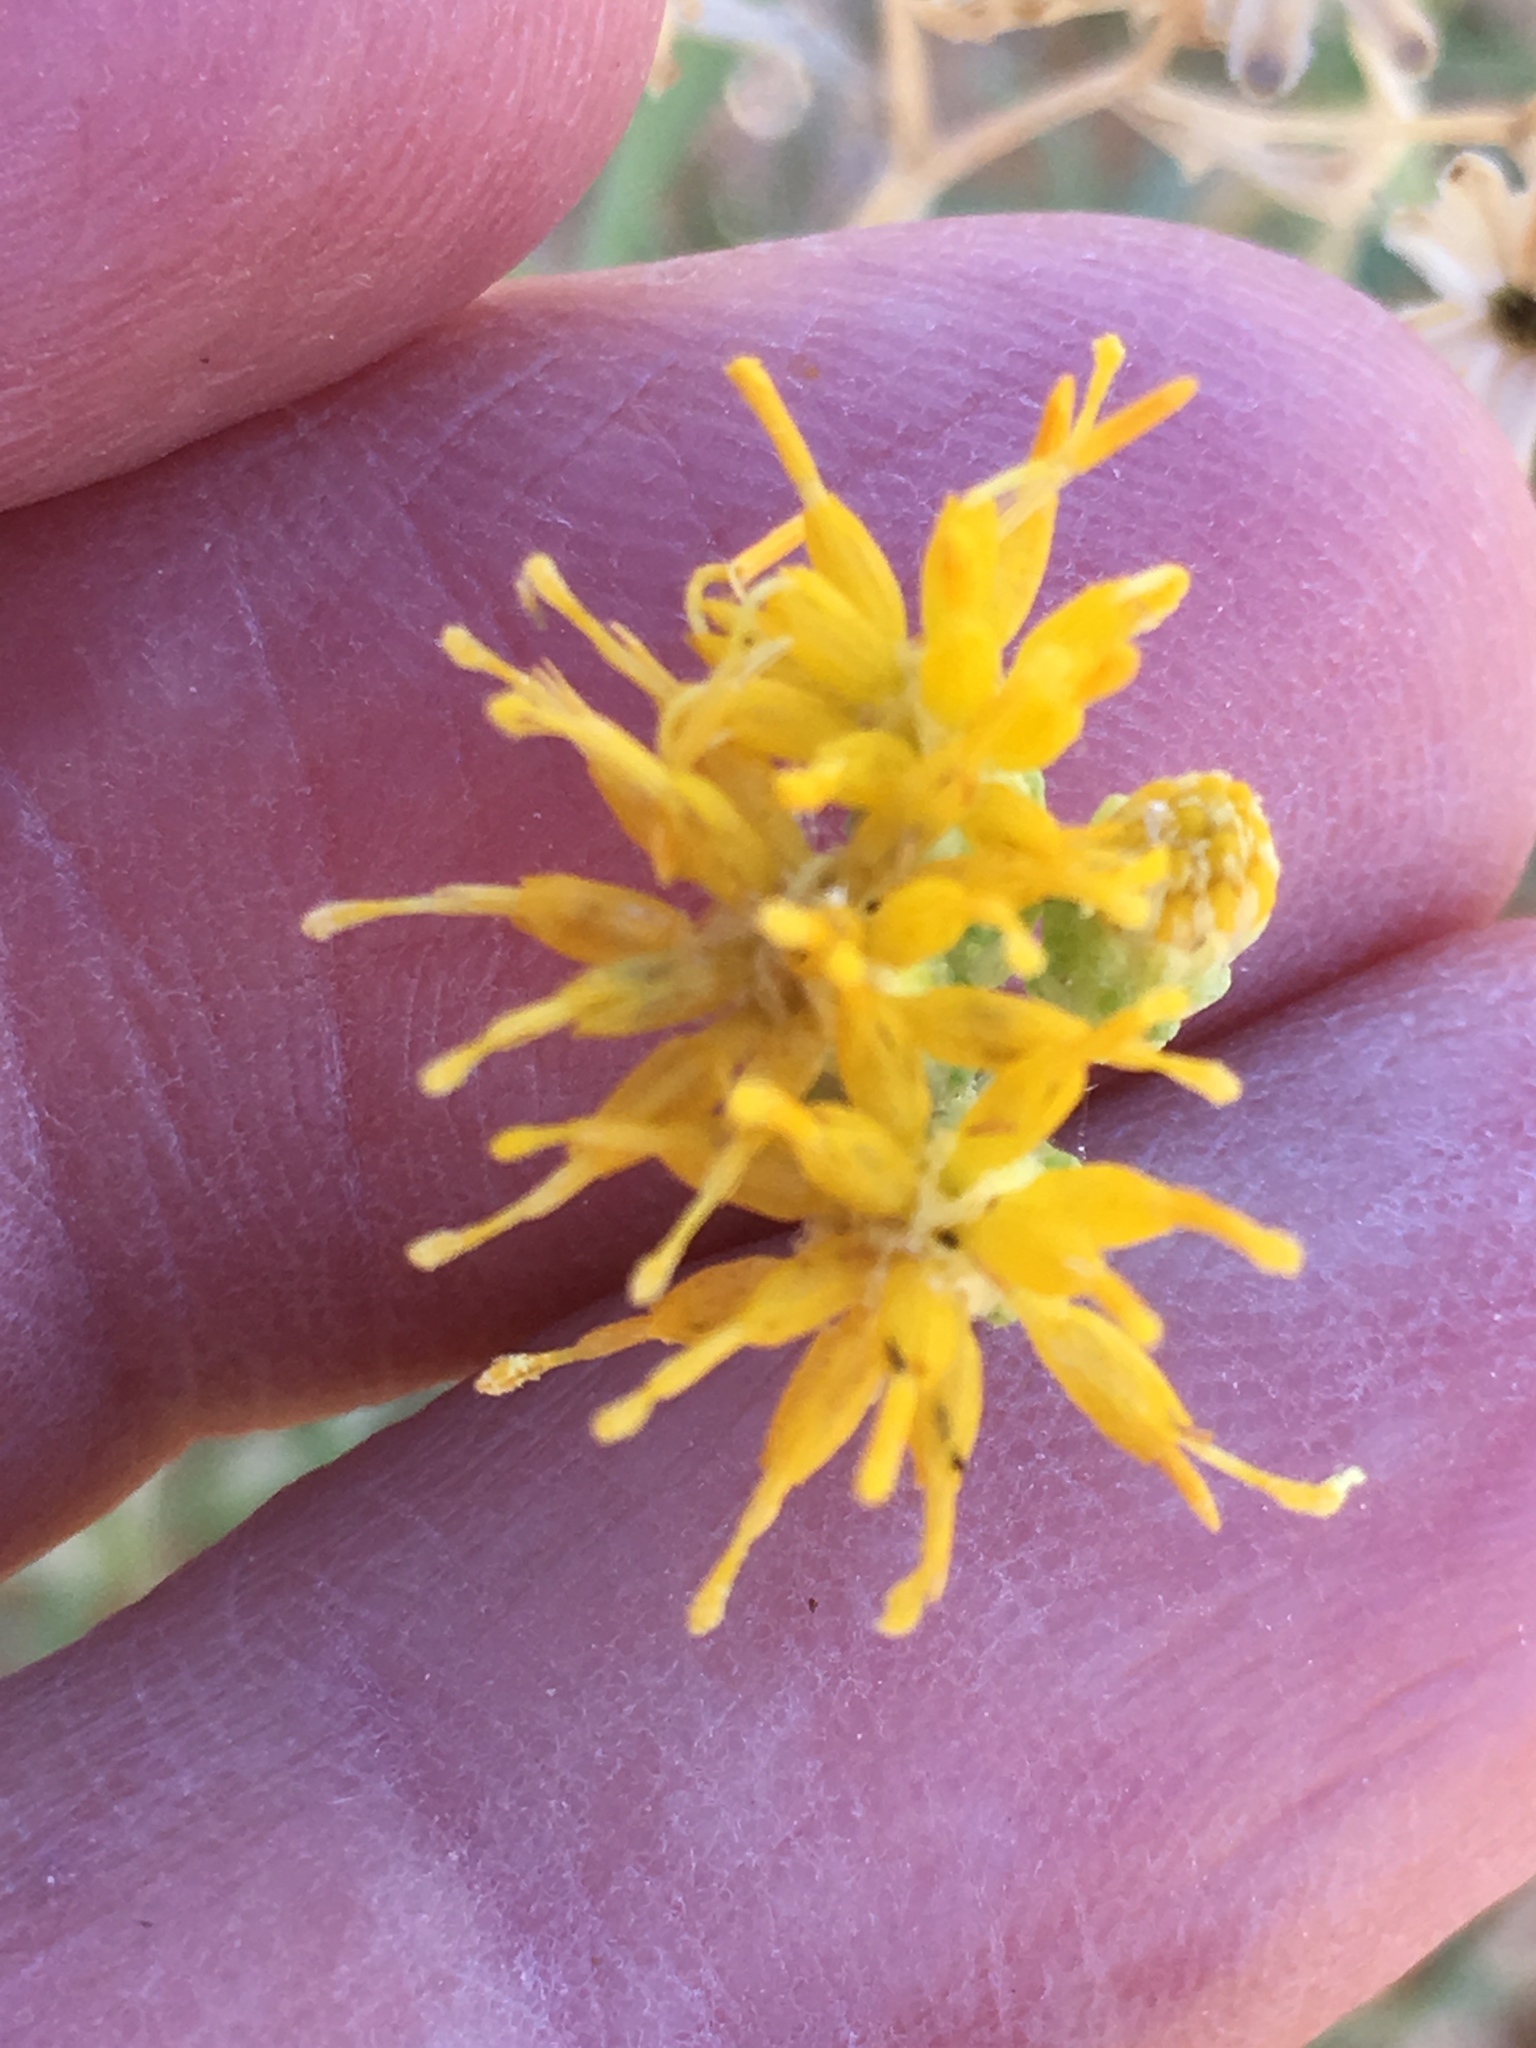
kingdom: Plantae
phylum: Tracheophyta
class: Magnoliopsida
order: Asterales
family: Asteraceae
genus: Isocoma
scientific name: Isocoma acradenia
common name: Alkali jimmyweed
